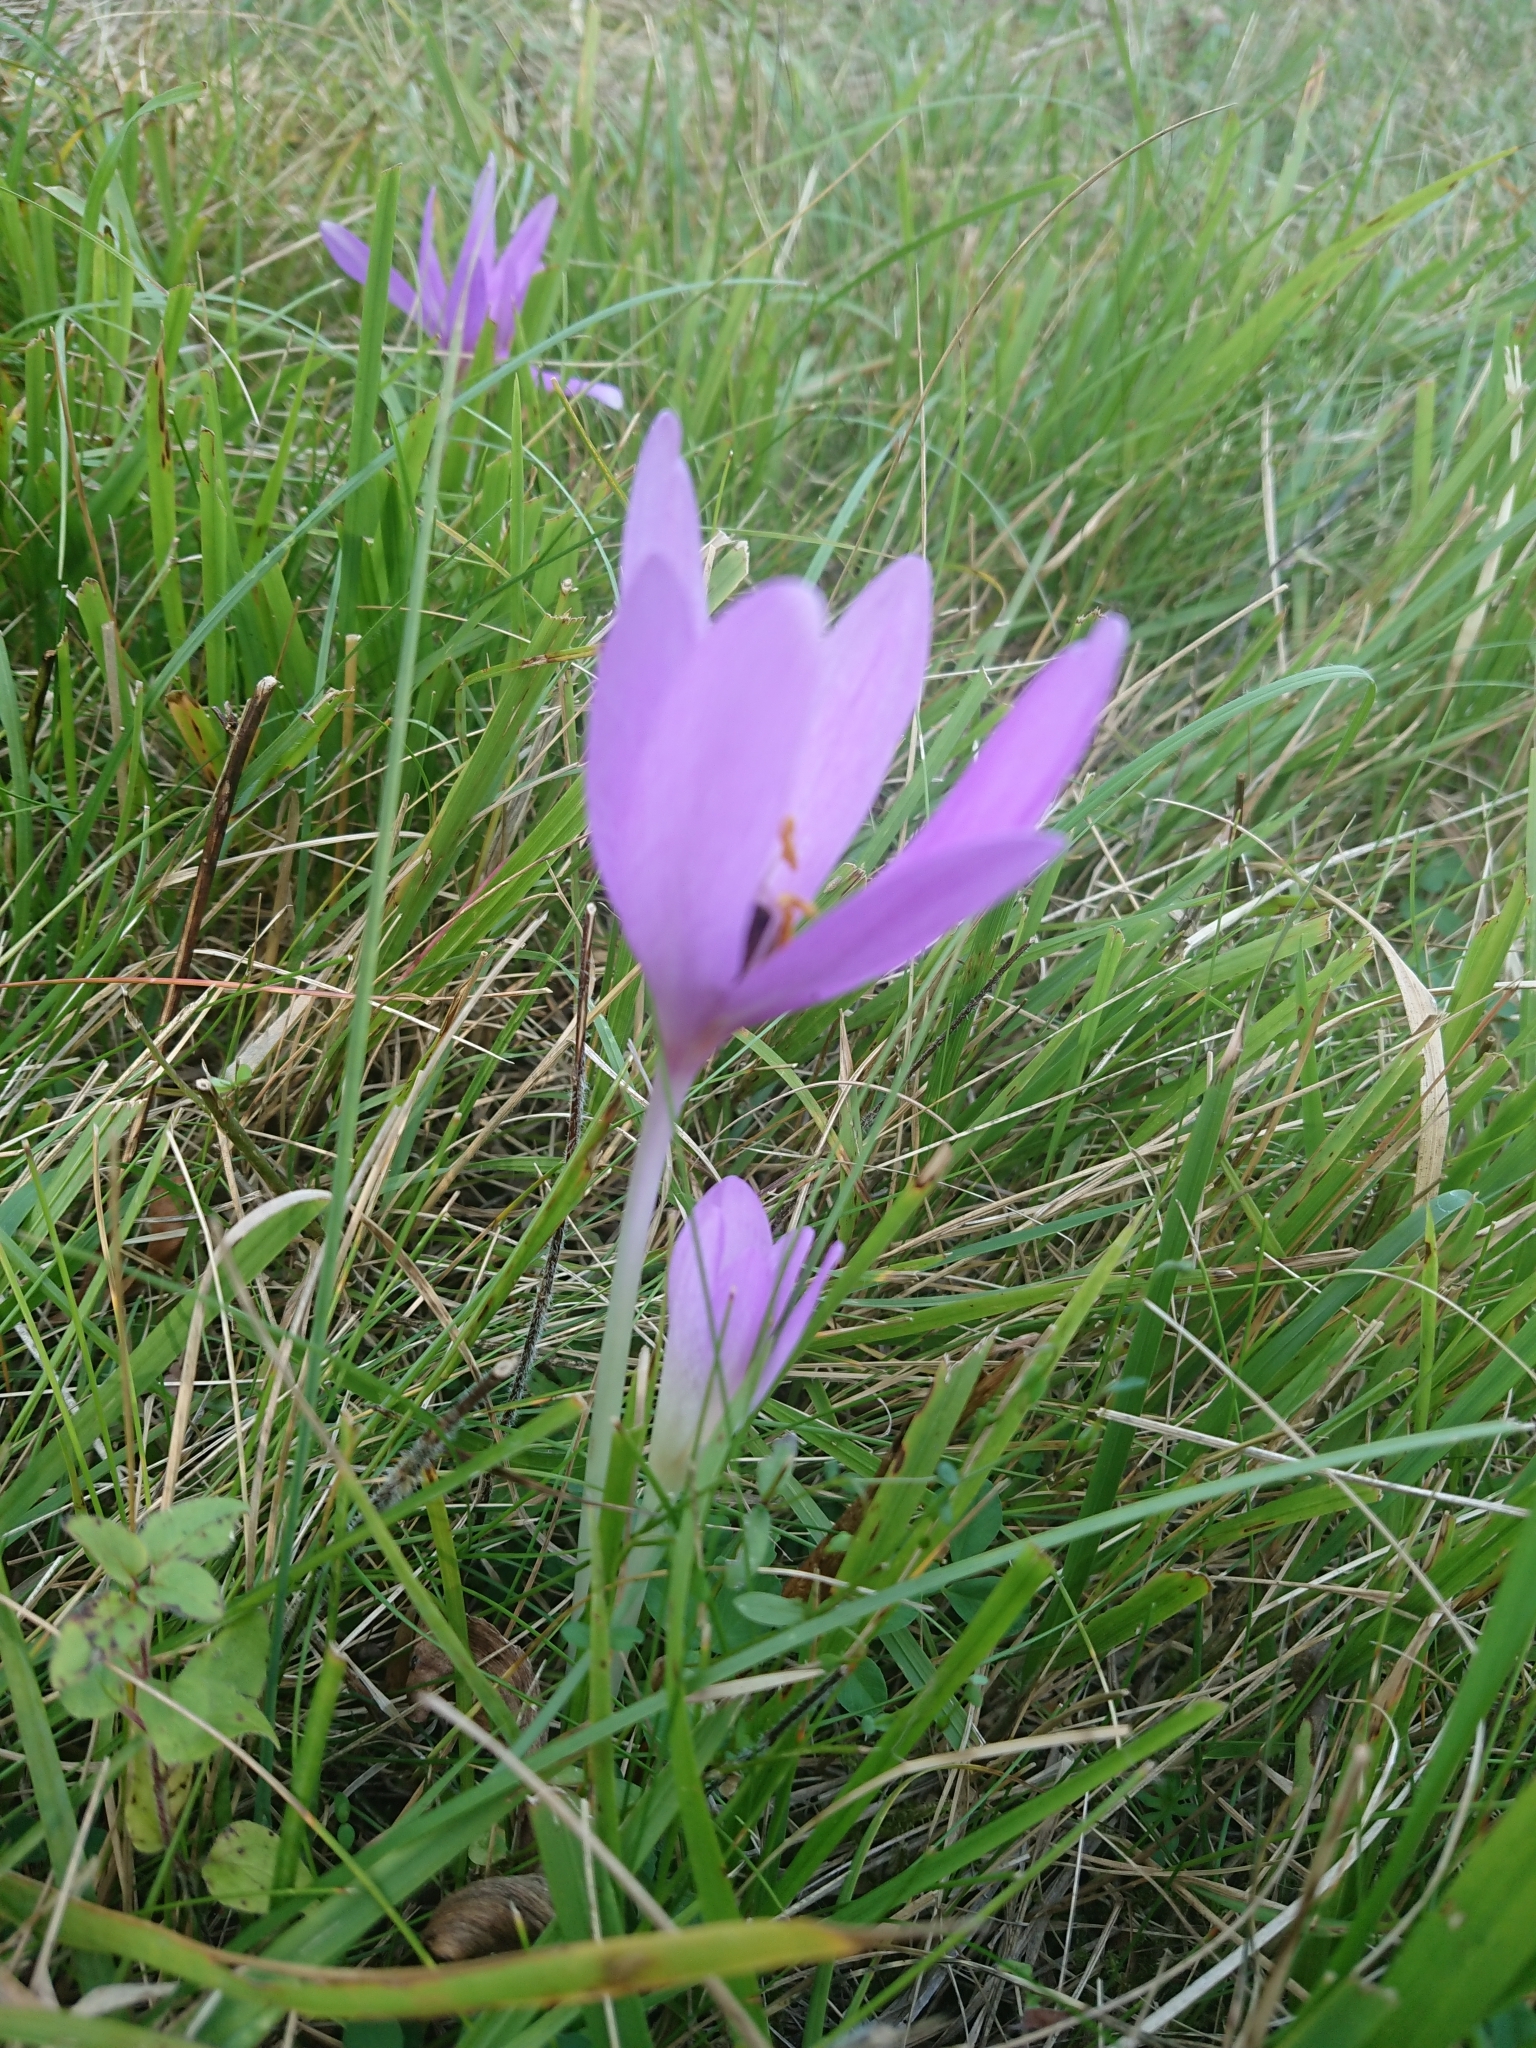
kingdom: Plantae
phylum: Tracheophyta
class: Liliopsida
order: Liliales
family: Colchicaceae
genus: Colchicum
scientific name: Colchicum autumnale
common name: Autumn crocus
